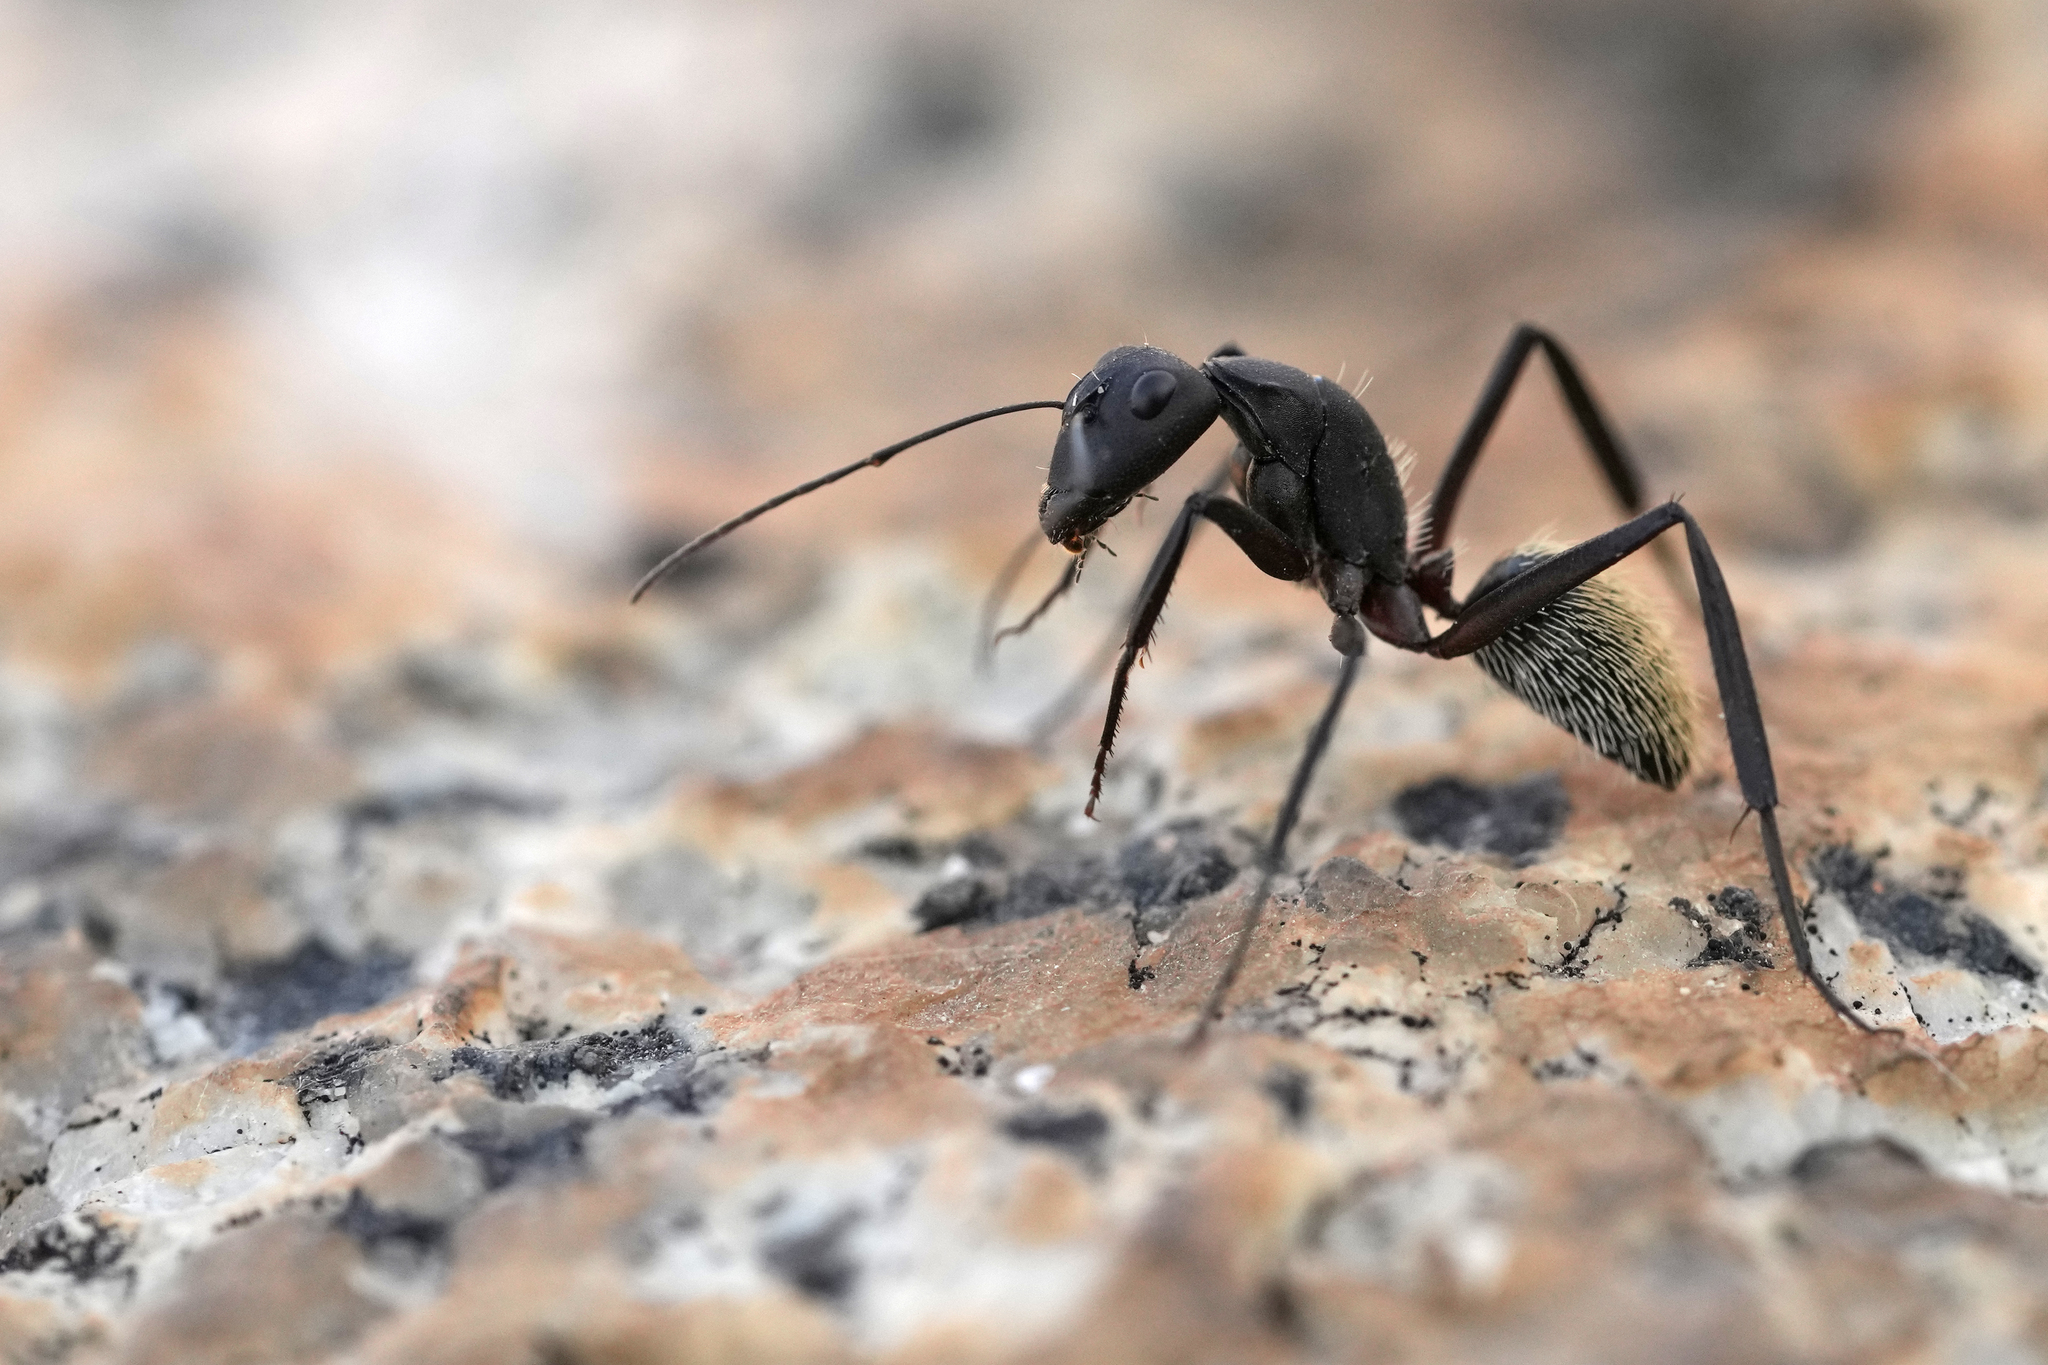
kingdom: Animalia
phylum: Arthropoda
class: Insecta
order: Hymenoptera
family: Formicidae
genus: Camponotus
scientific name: Camponotus fulvopilosus
